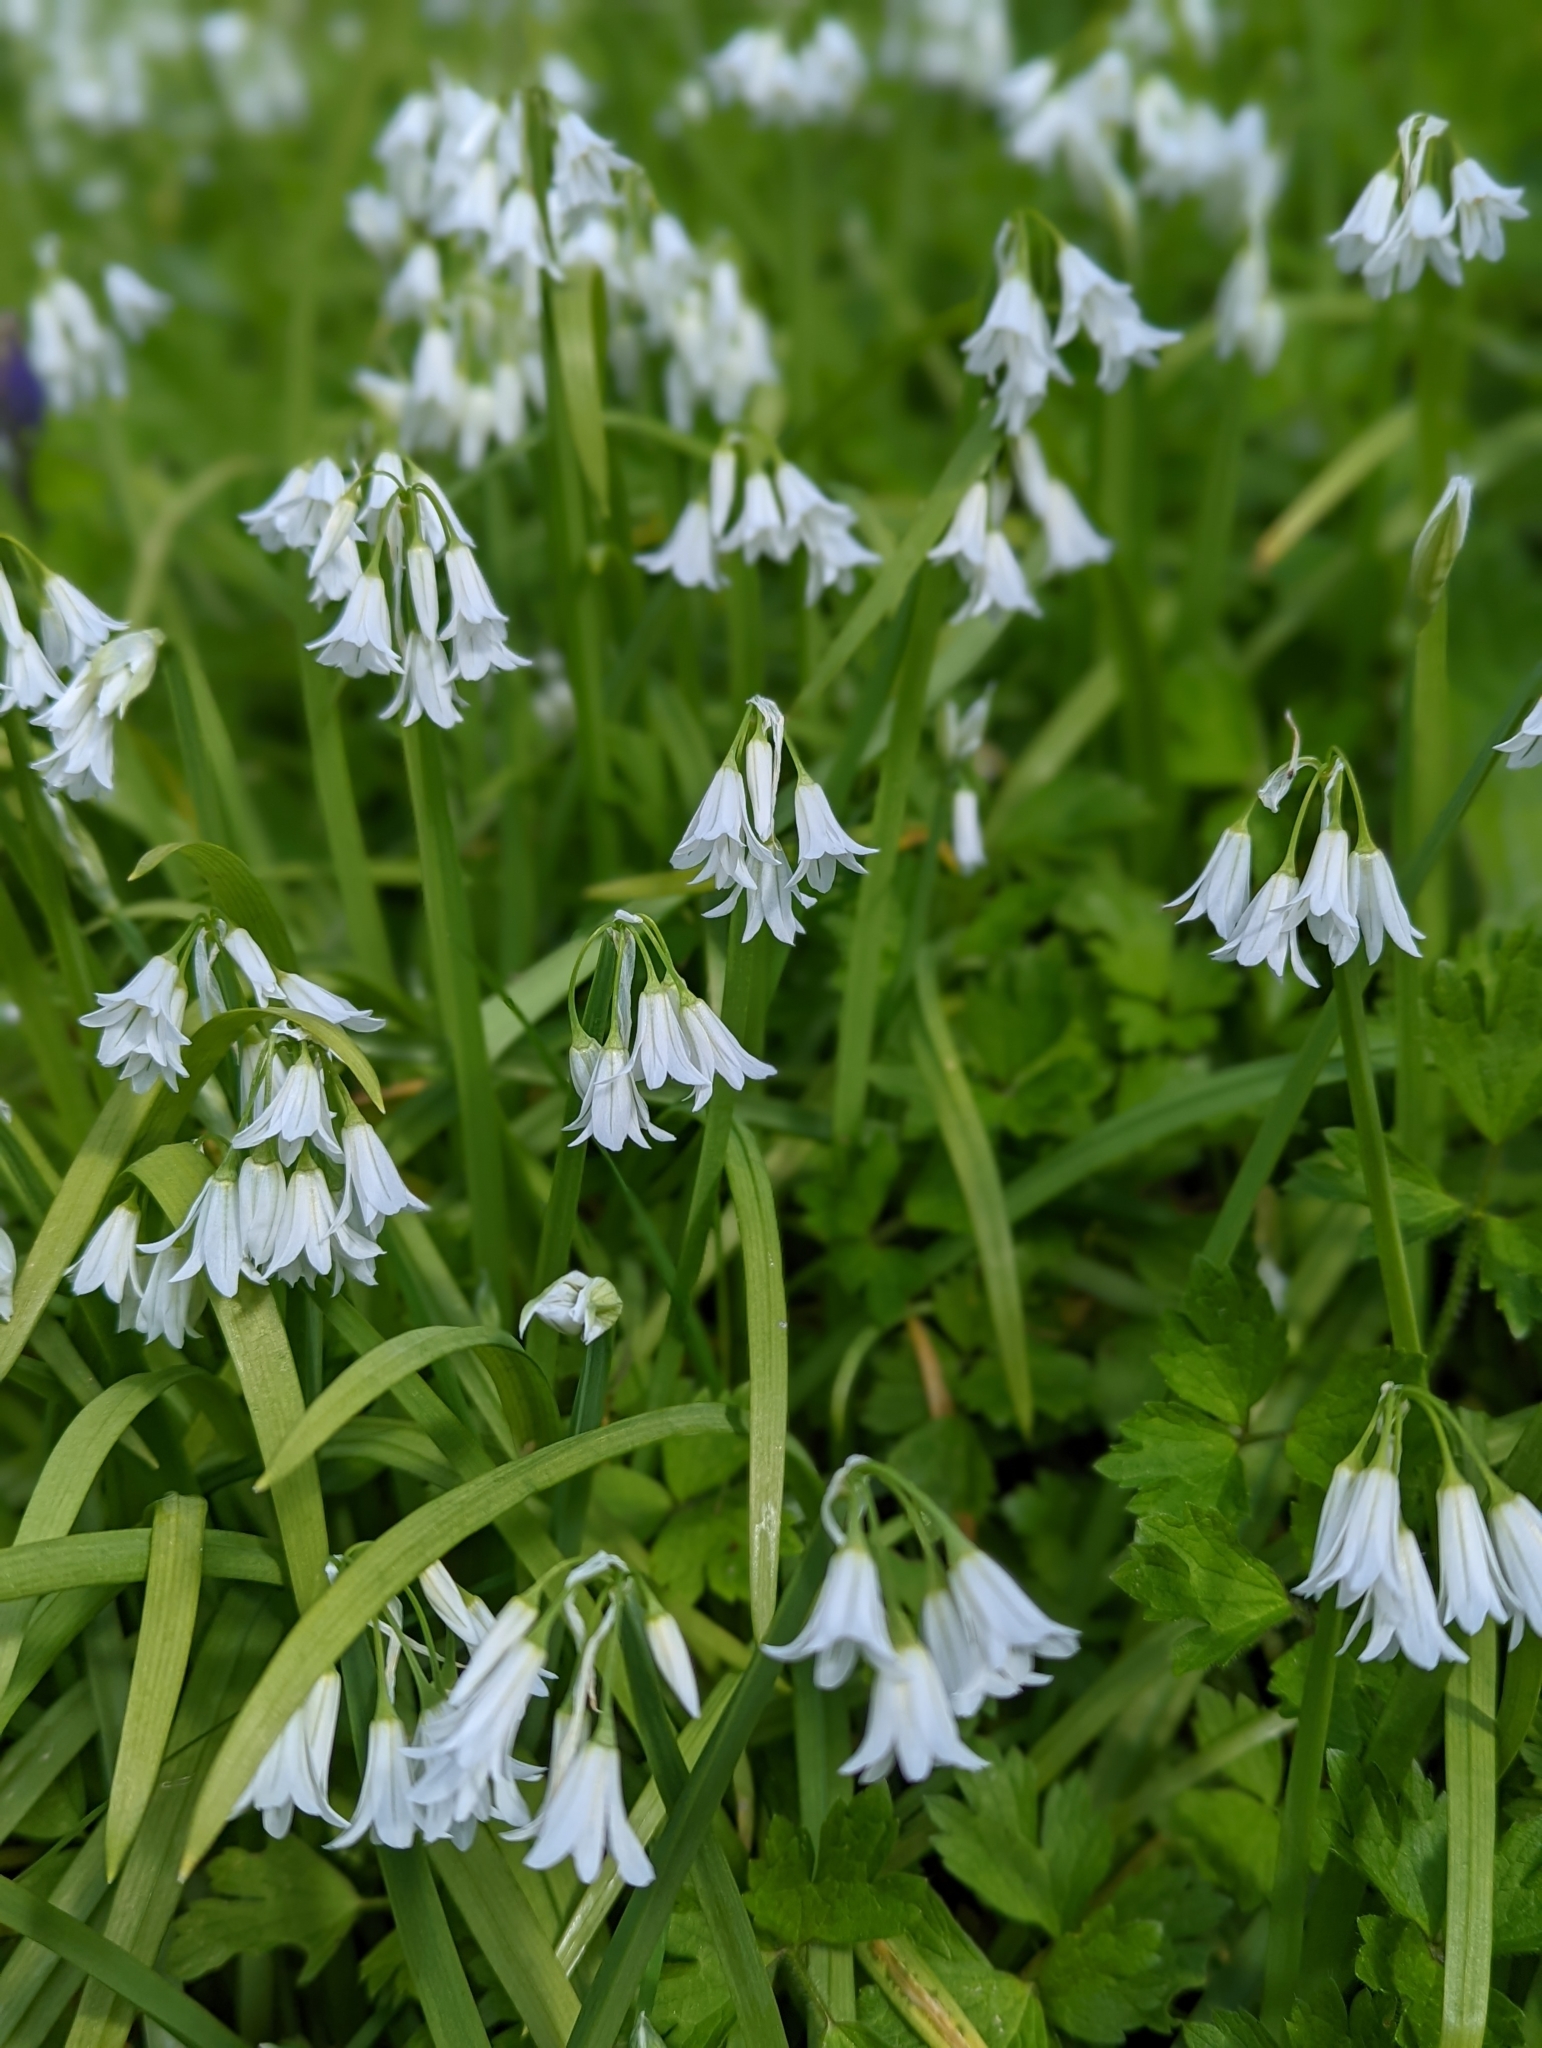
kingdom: Plantae
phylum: Tracheophyta
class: Liliopsida
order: Asparagales
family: Amaryllidaceae
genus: Allium
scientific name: Allium triquetrum
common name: Three-cornered garlic
